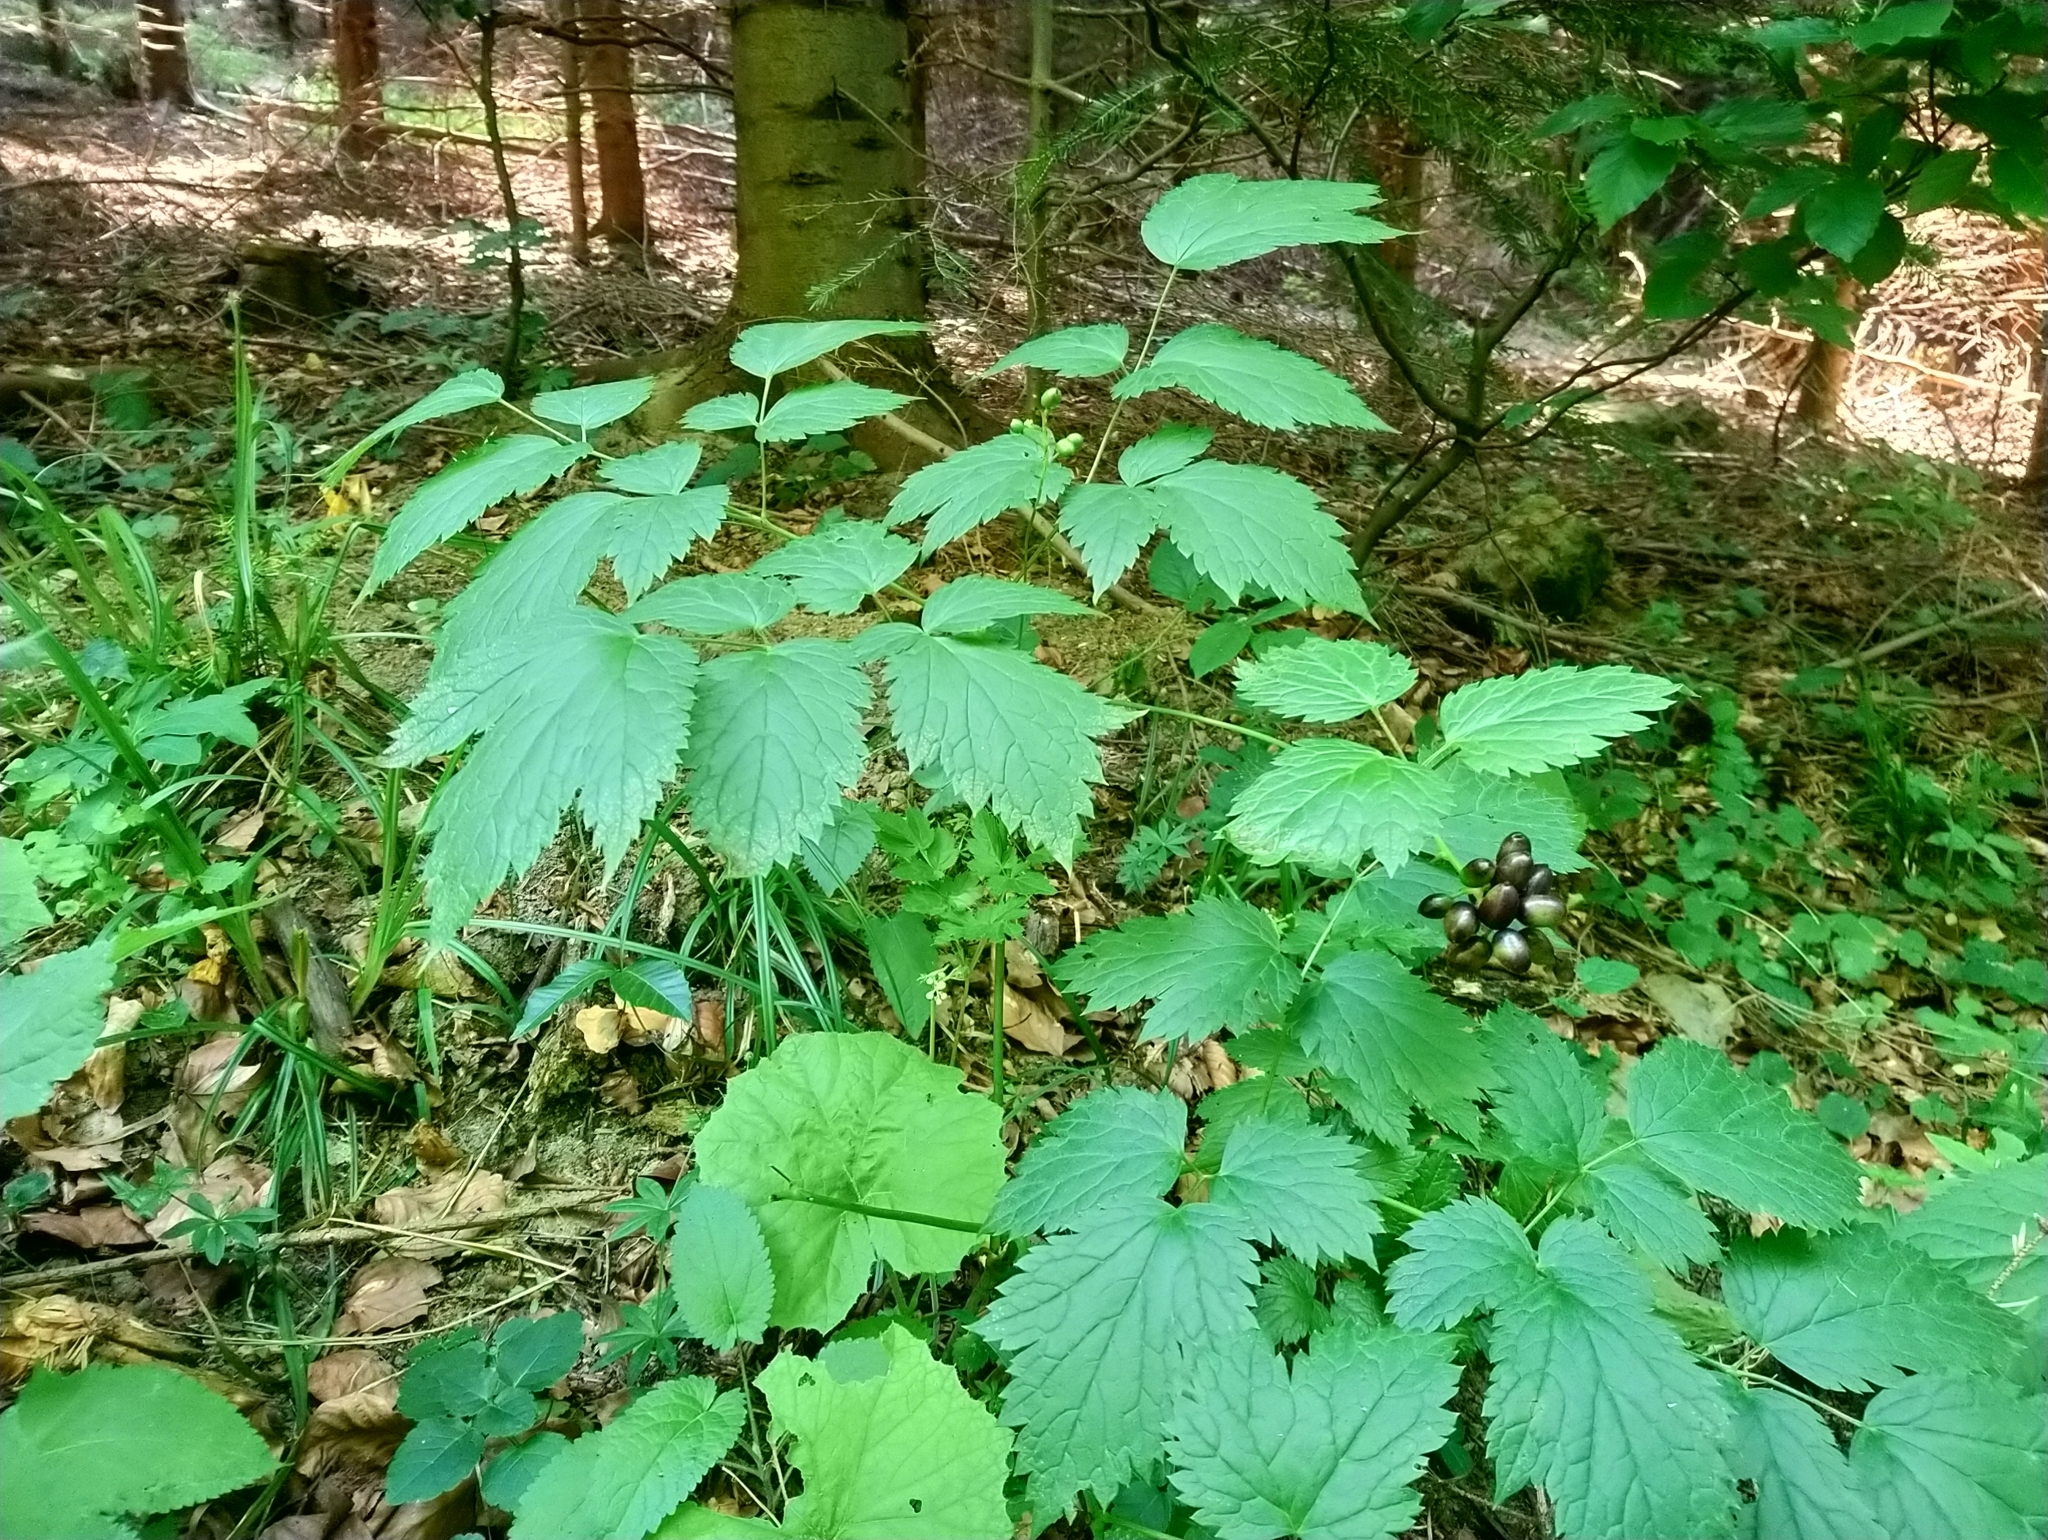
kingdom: Plantae
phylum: Tracheophyta
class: Magnoliopsida
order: Ranunculales
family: Ranunculaceae
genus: Actaea
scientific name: Actaea spicata
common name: Baneberry
